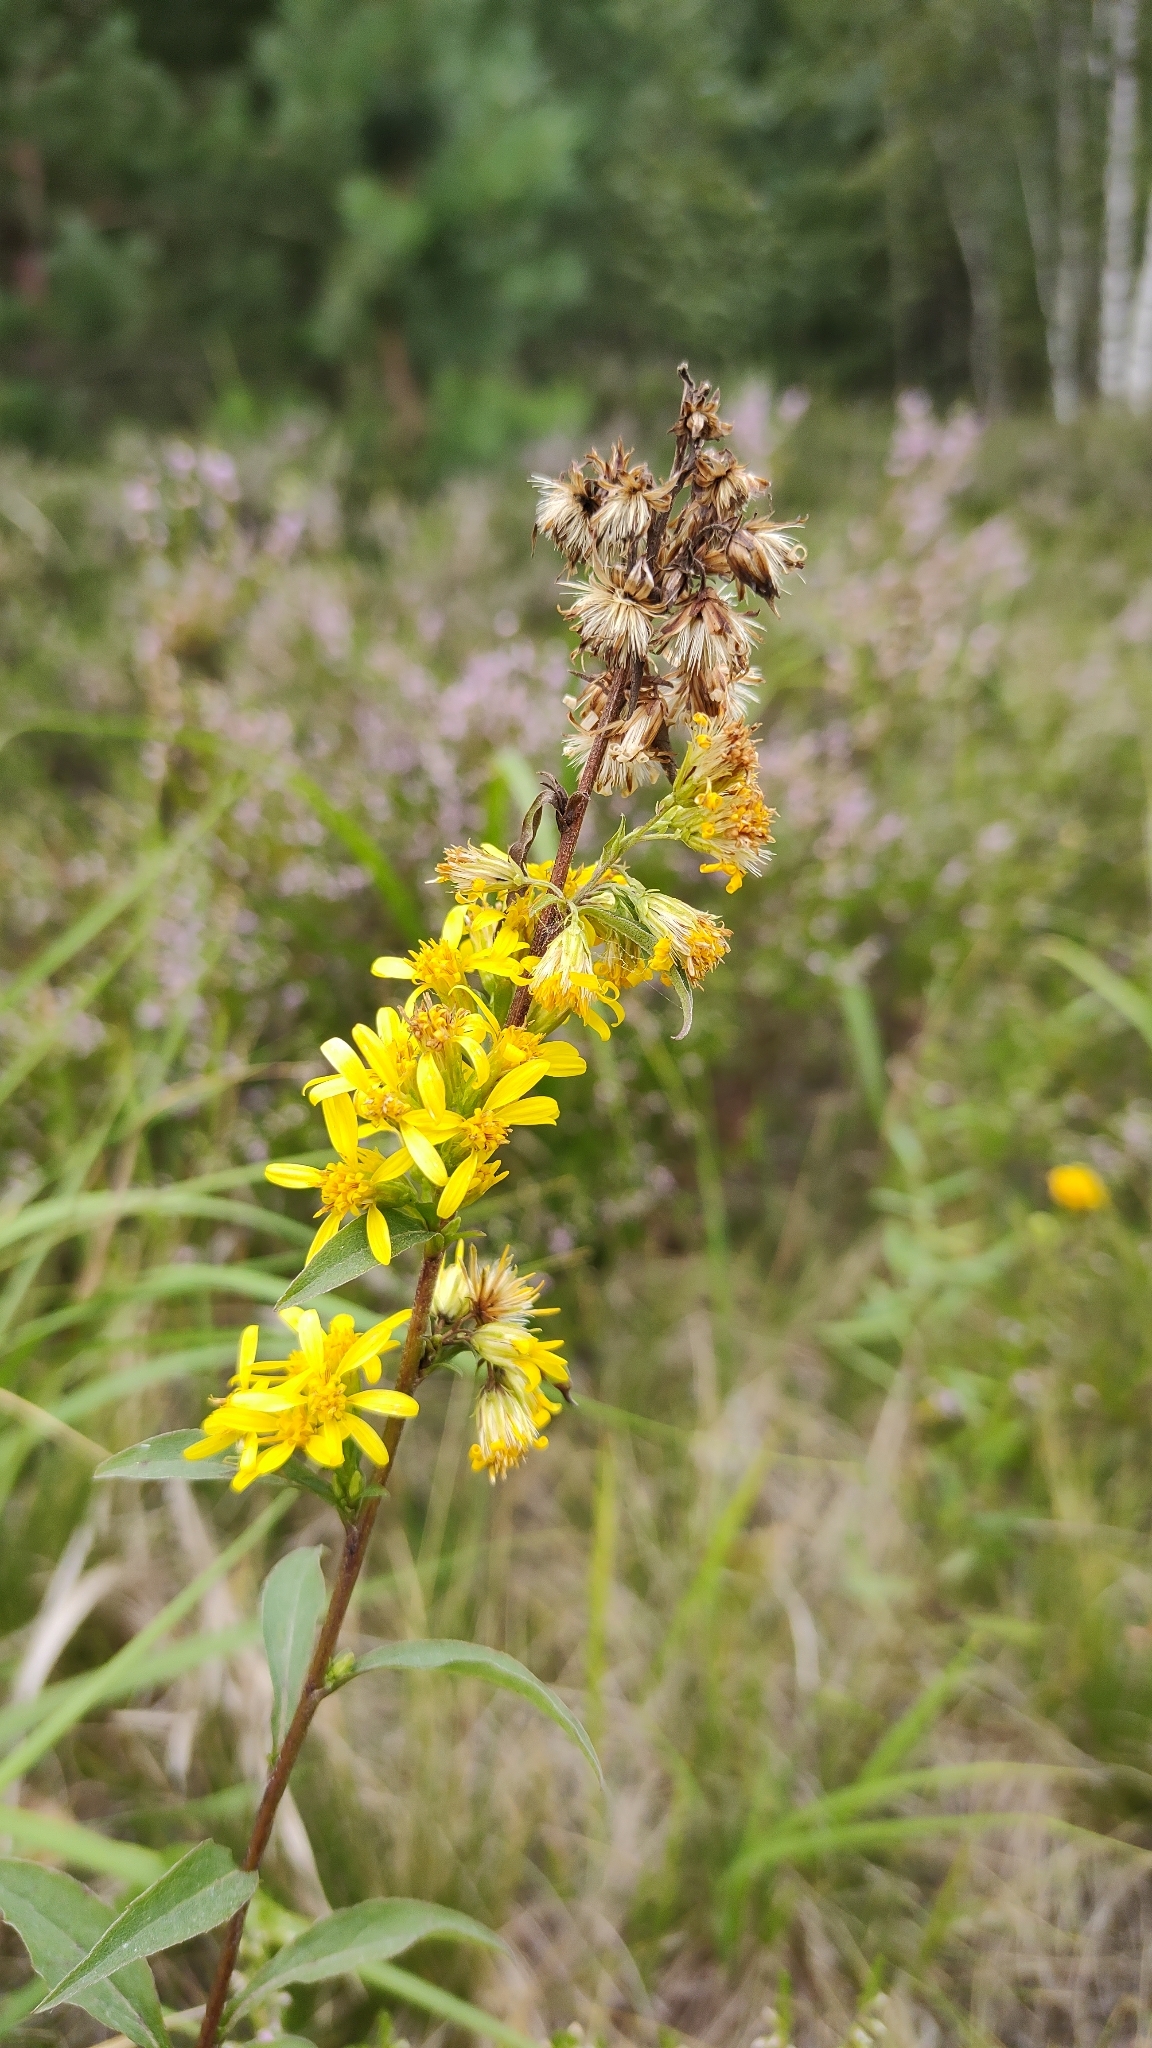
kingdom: Plantae
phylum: Tracheophyta
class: Magnoliopsida
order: Asterales
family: Asteraceae
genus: Solidago
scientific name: Solidago virgaurea
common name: Goldenrod
